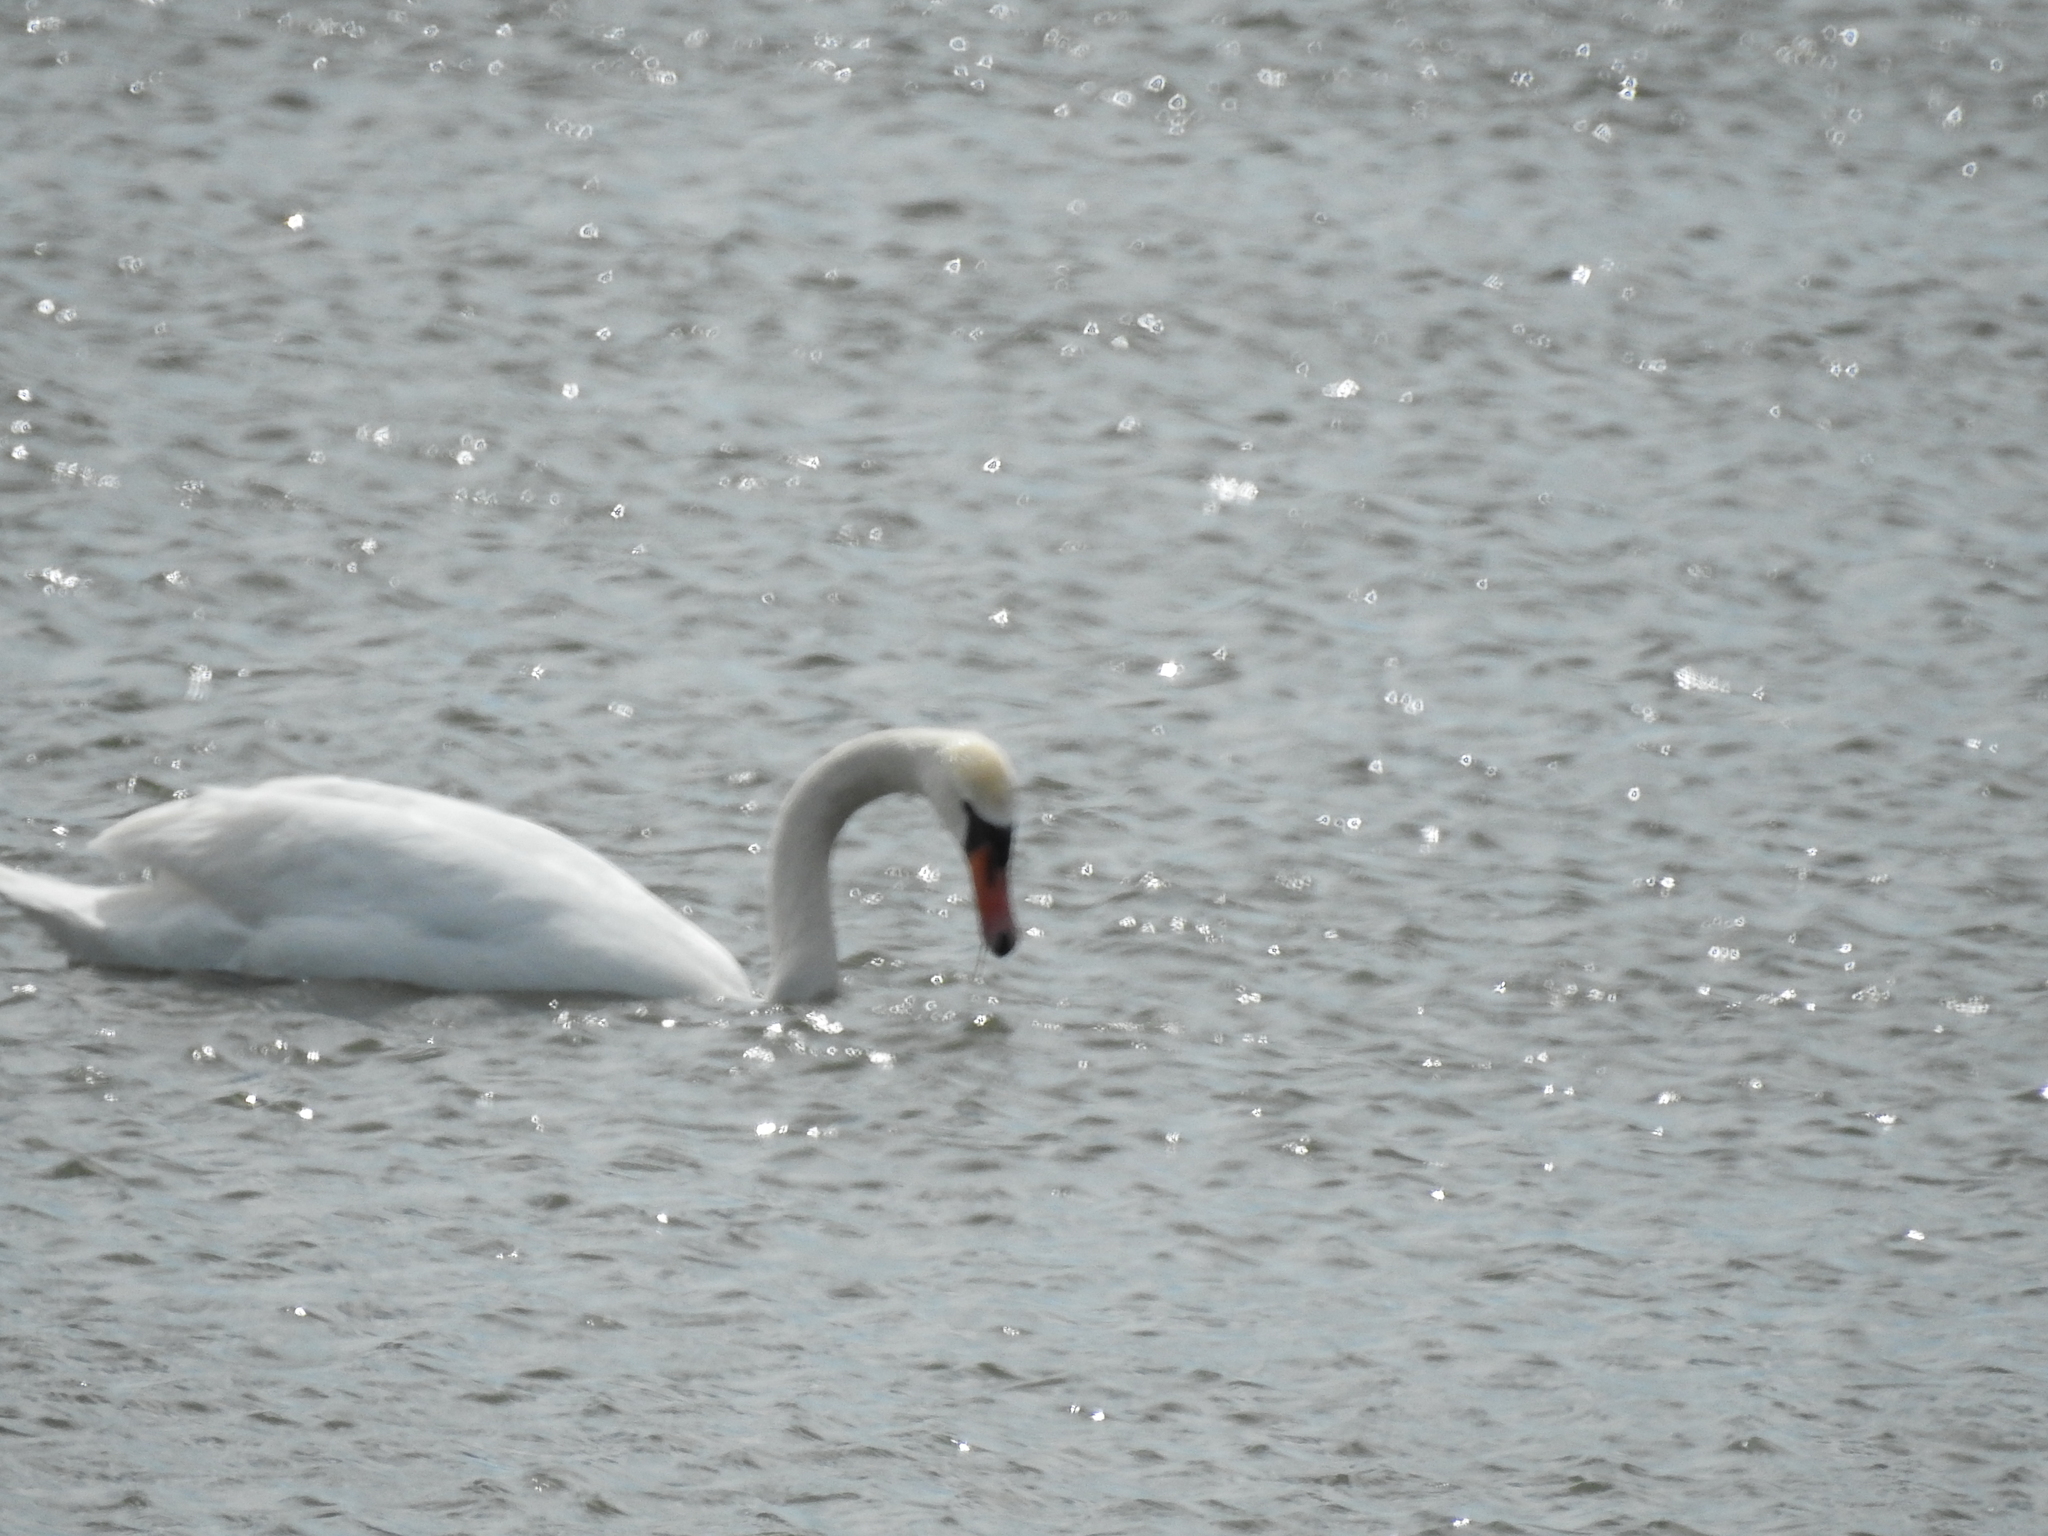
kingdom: Animalia
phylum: Chordata
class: Aves
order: Anseriformes
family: Anatidae
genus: Cygnus
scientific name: Cygnus olor
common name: Mute swan
